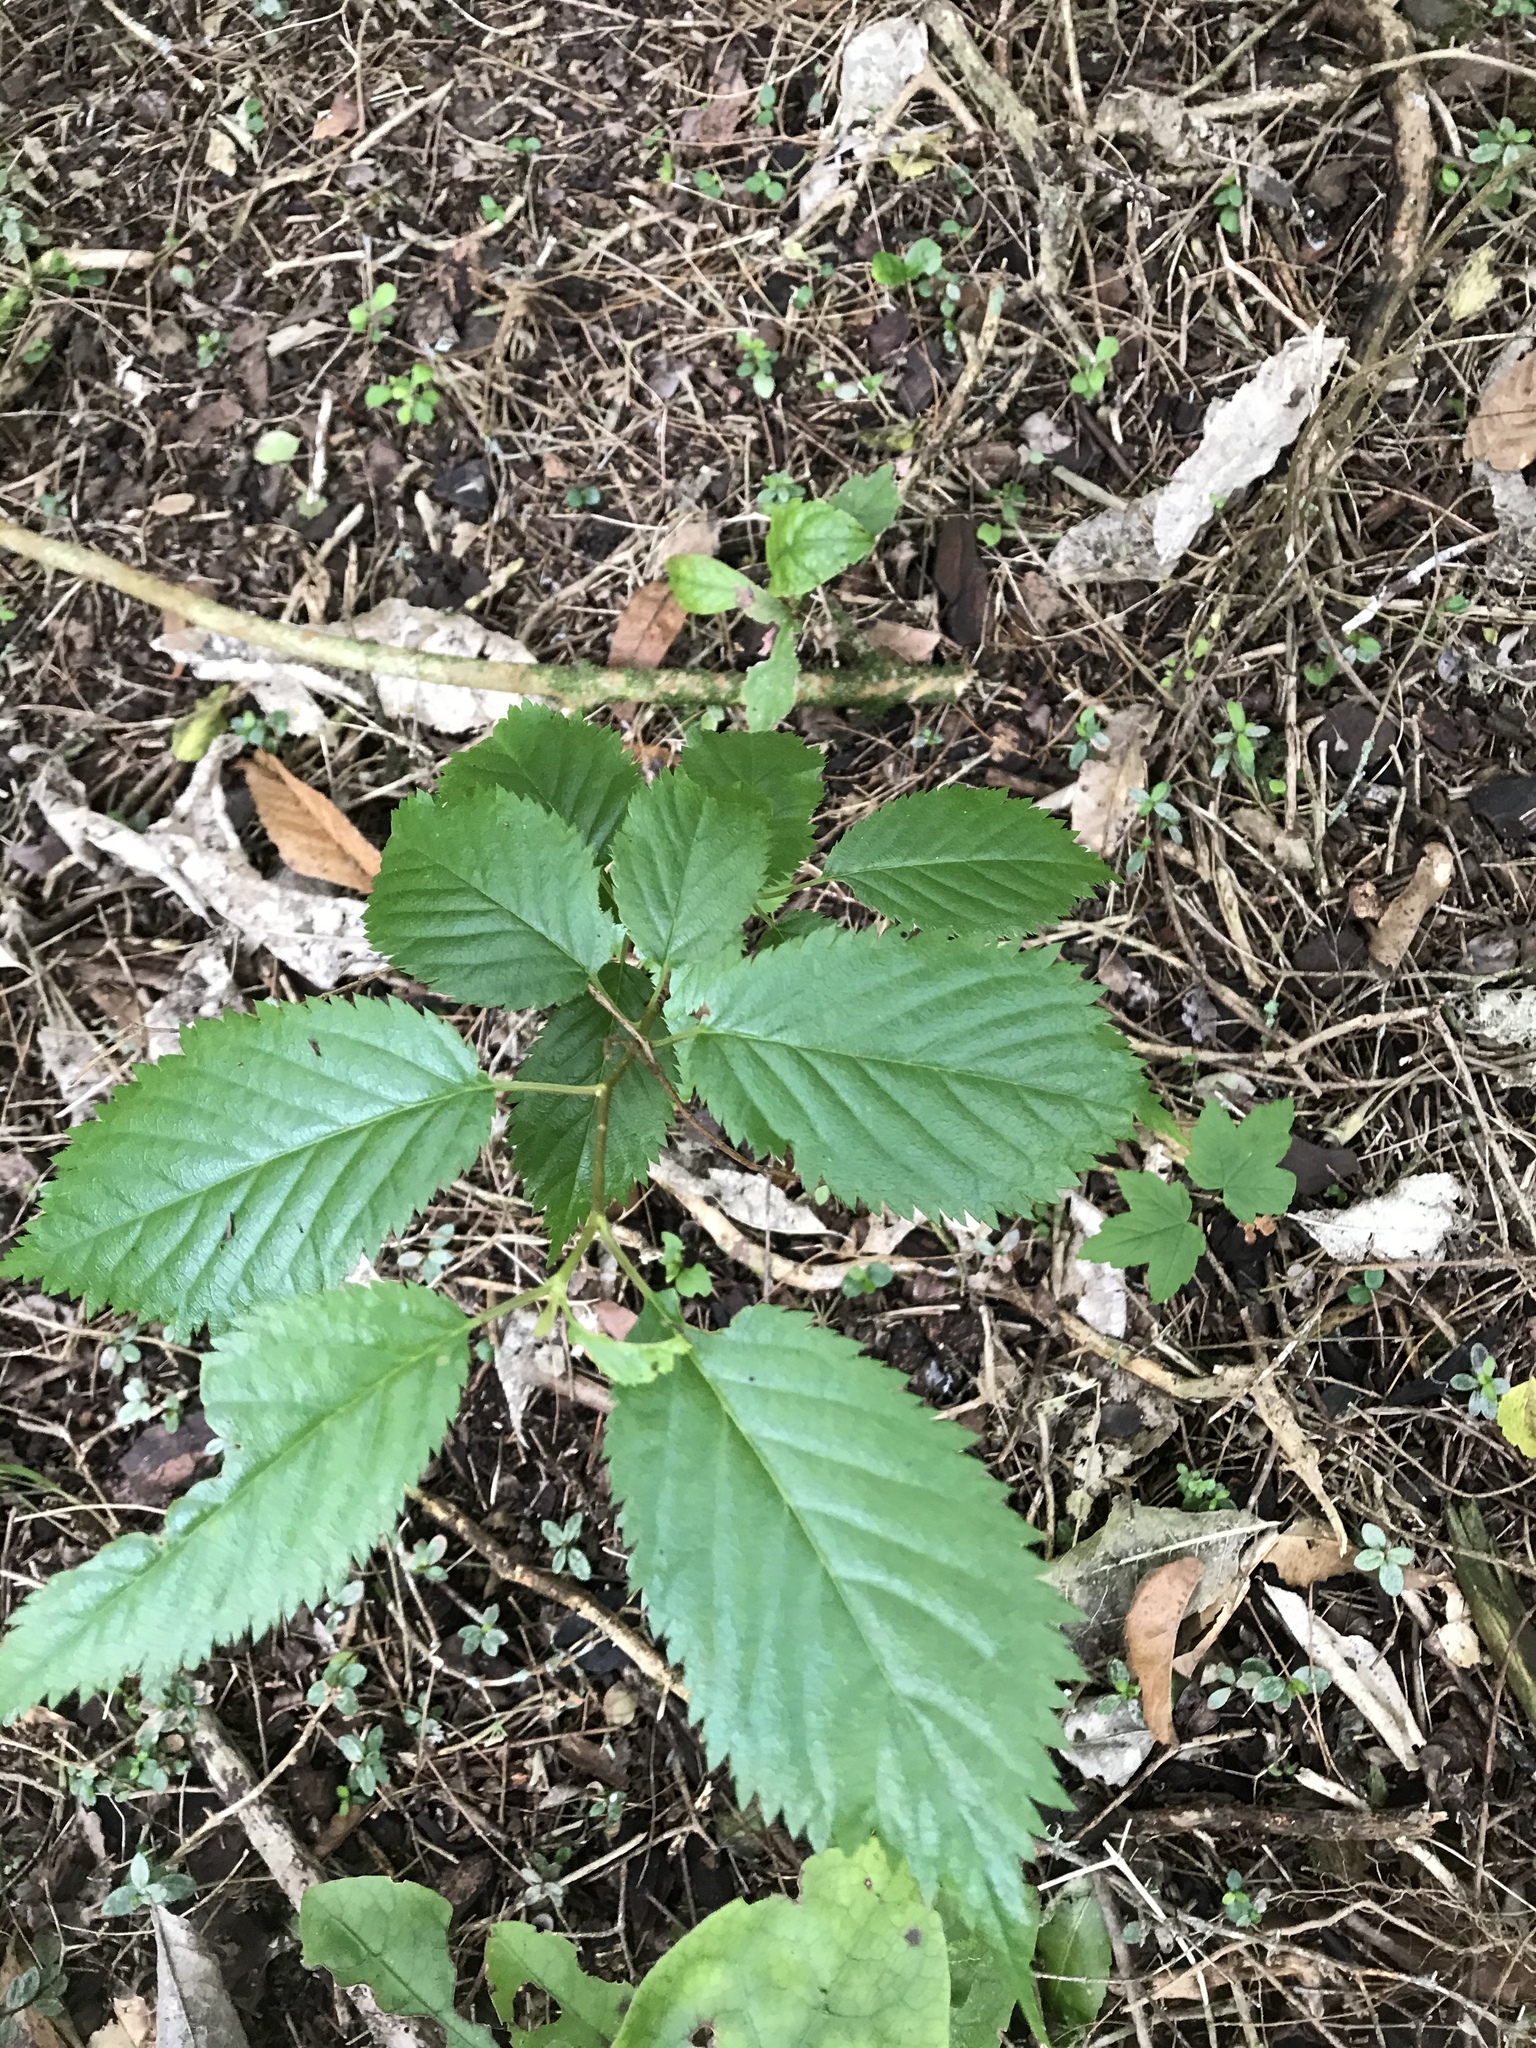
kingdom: Plantae
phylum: Tracheophyta
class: Magnoliopsida
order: Rosales
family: Rosaceae
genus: Prunus
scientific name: Prunus avium
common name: Sweet cherry
